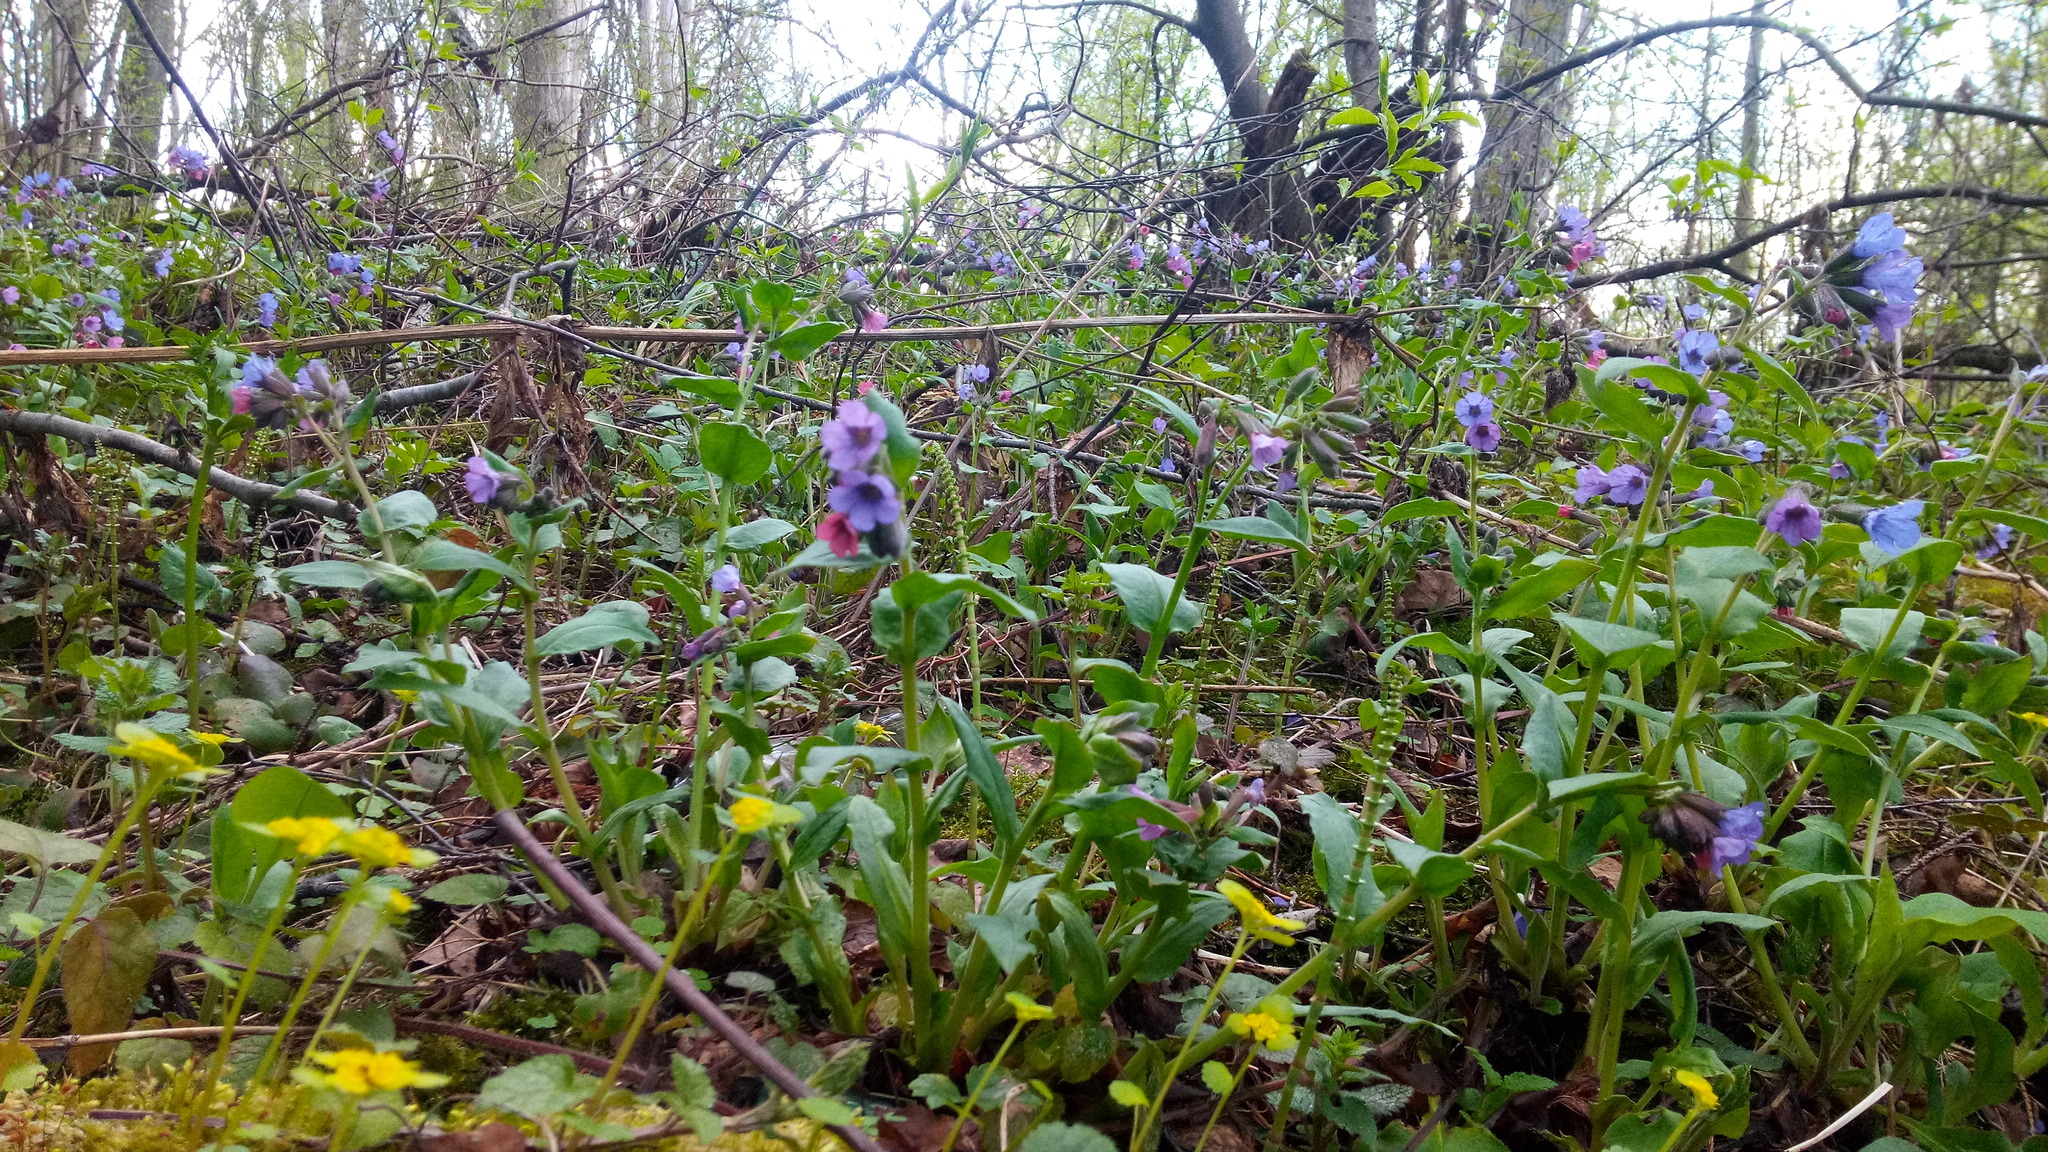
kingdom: Plantae
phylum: Tracheophyta
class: Polypodiopsida
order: Equisetales
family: Equisetaceae
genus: Equisetum
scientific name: Equisetum pratense
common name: Meadow horsetail
